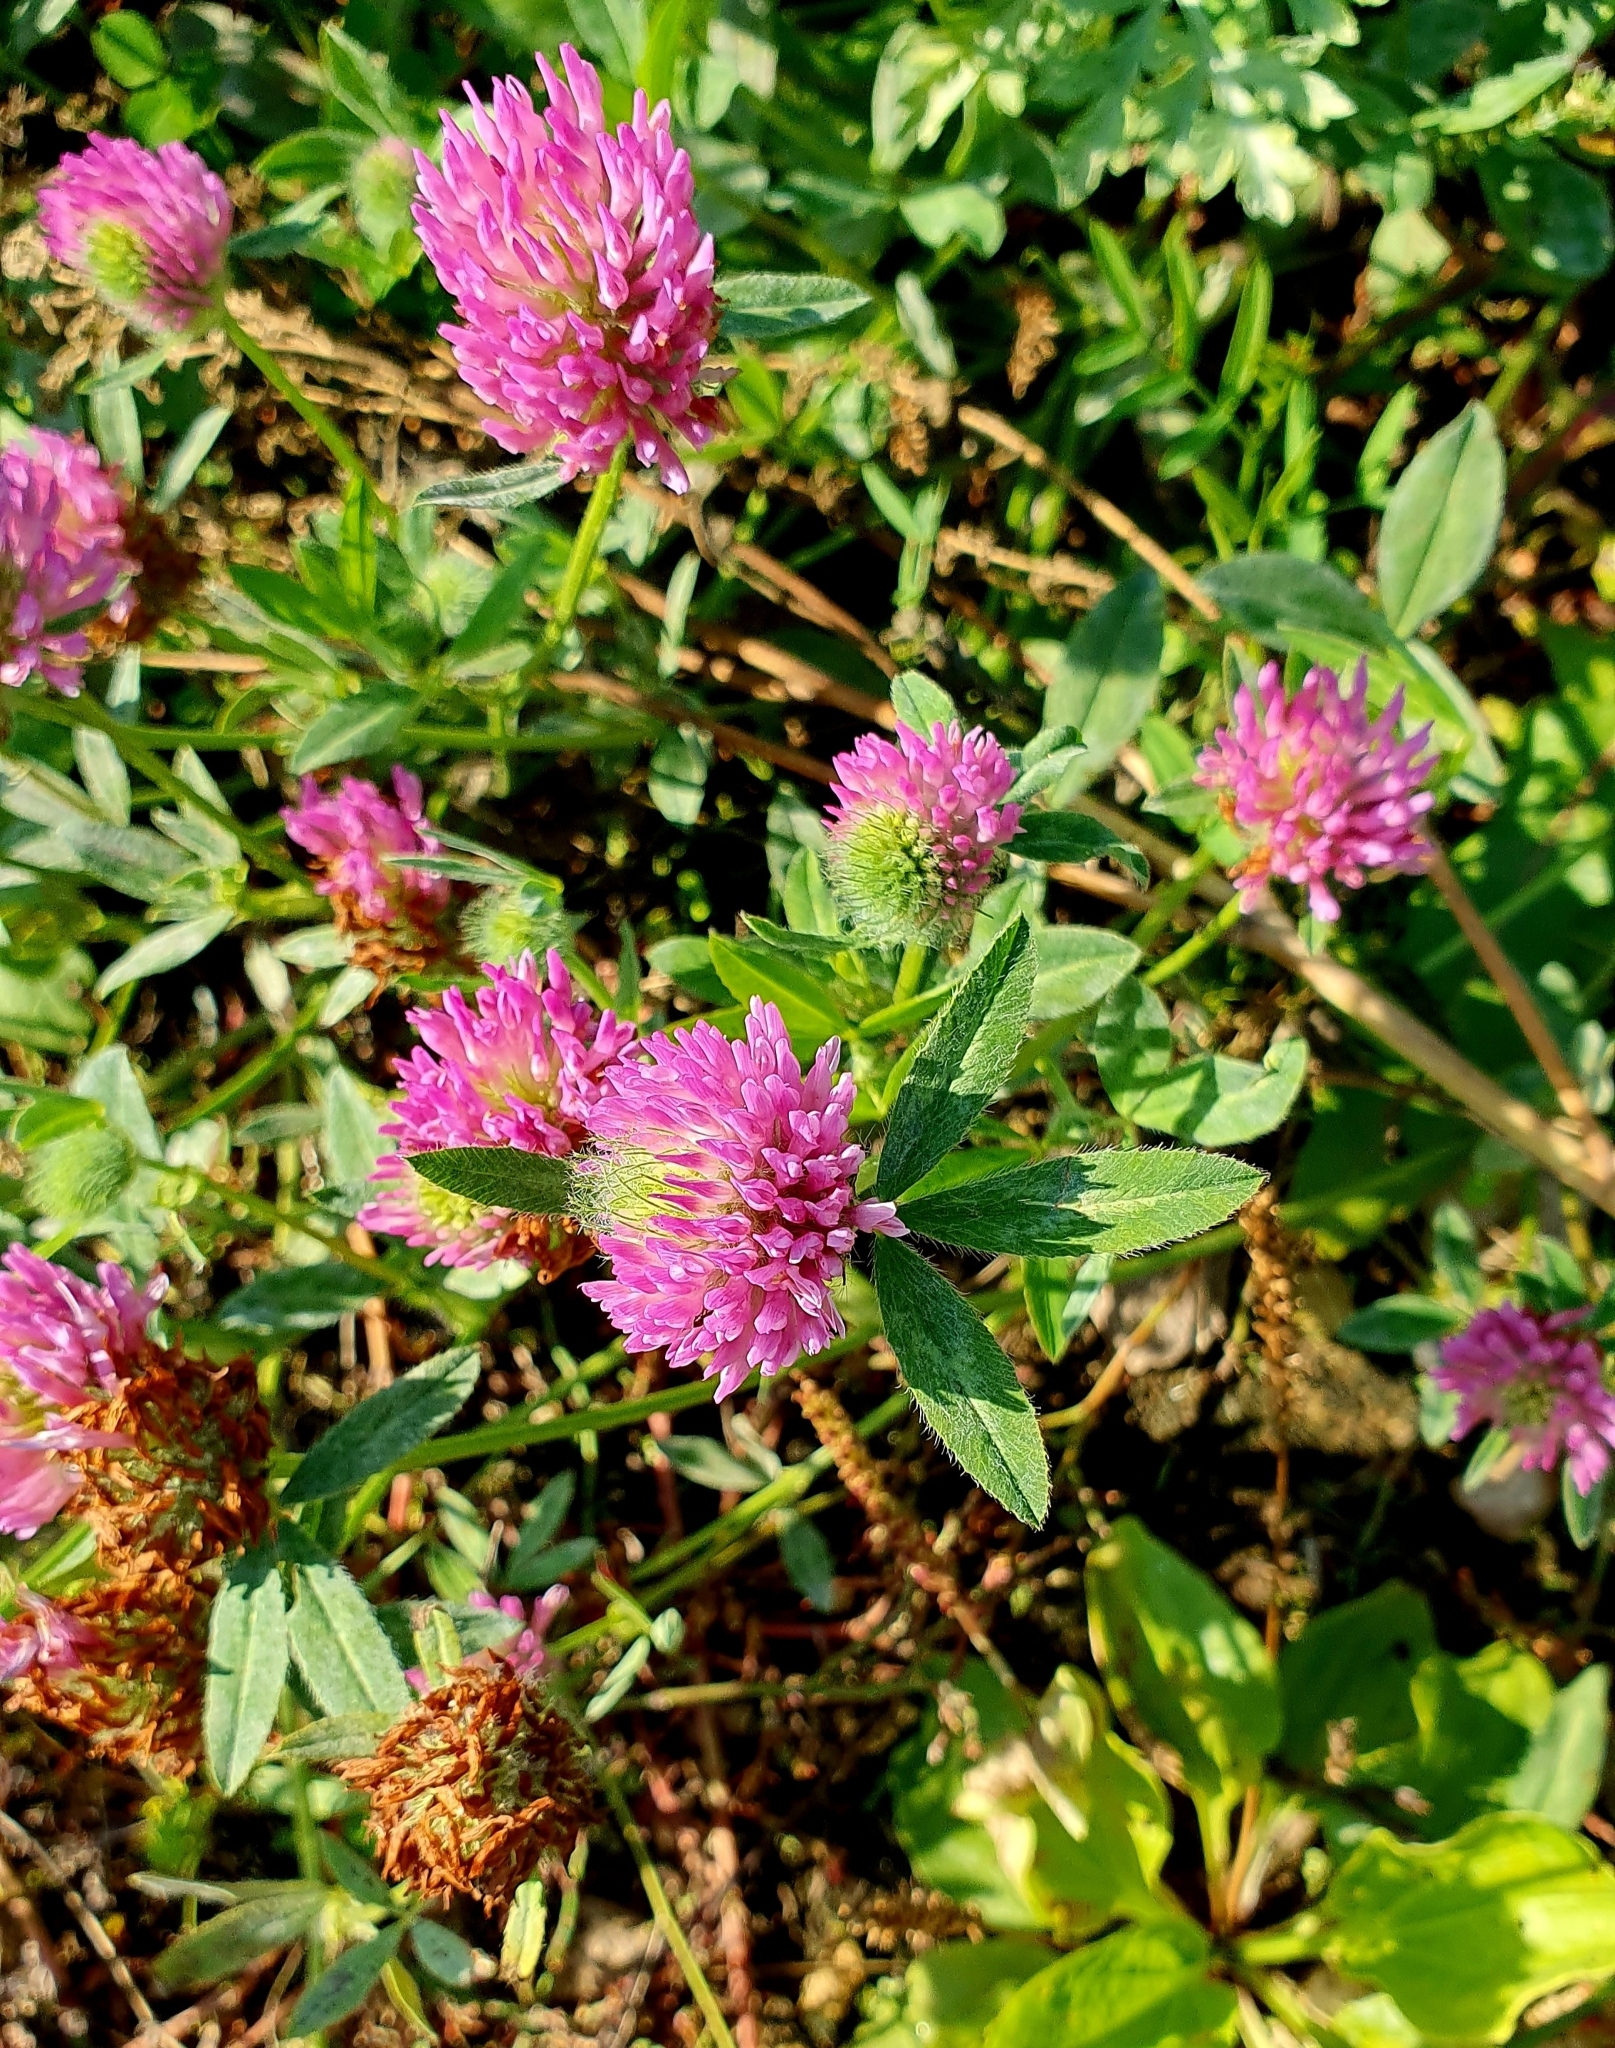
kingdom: Plantae
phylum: Tracheophyta
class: Magnoliopsida
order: Fabales
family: Fabaceae
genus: Trifolium
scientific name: Trifolium pratense
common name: Red clover
